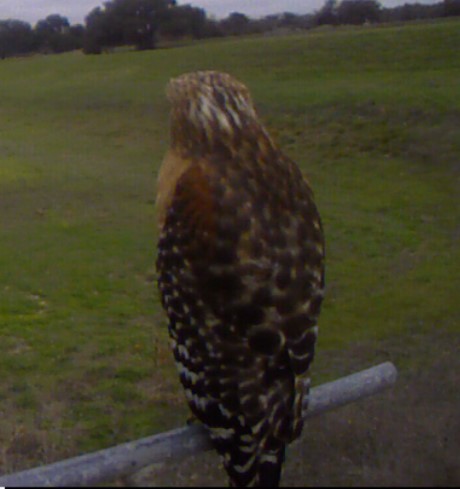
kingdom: Animalia
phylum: Chordata
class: Aves
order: Accipitriformes
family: Accipitridae
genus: Buteo
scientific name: Buteo lineatus
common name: Red-shouldered hawk
